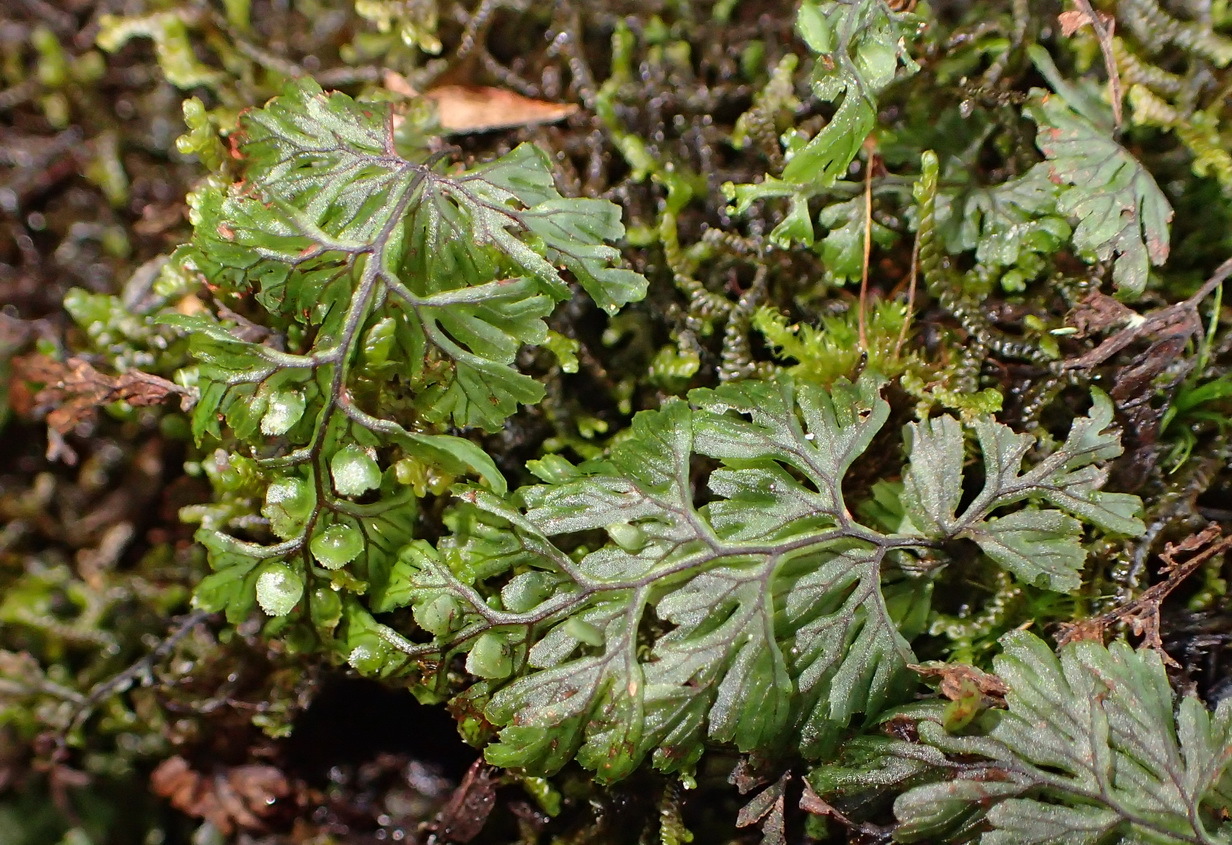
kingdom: Plantae
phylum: Tracheophyta
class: Polypodiopsida
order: Hymenophyllales
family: Hymenophyllaceae
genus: Hymenophyllum
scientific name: Hymenophyllum tunbrigense
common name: Tunbridge filmy fern
